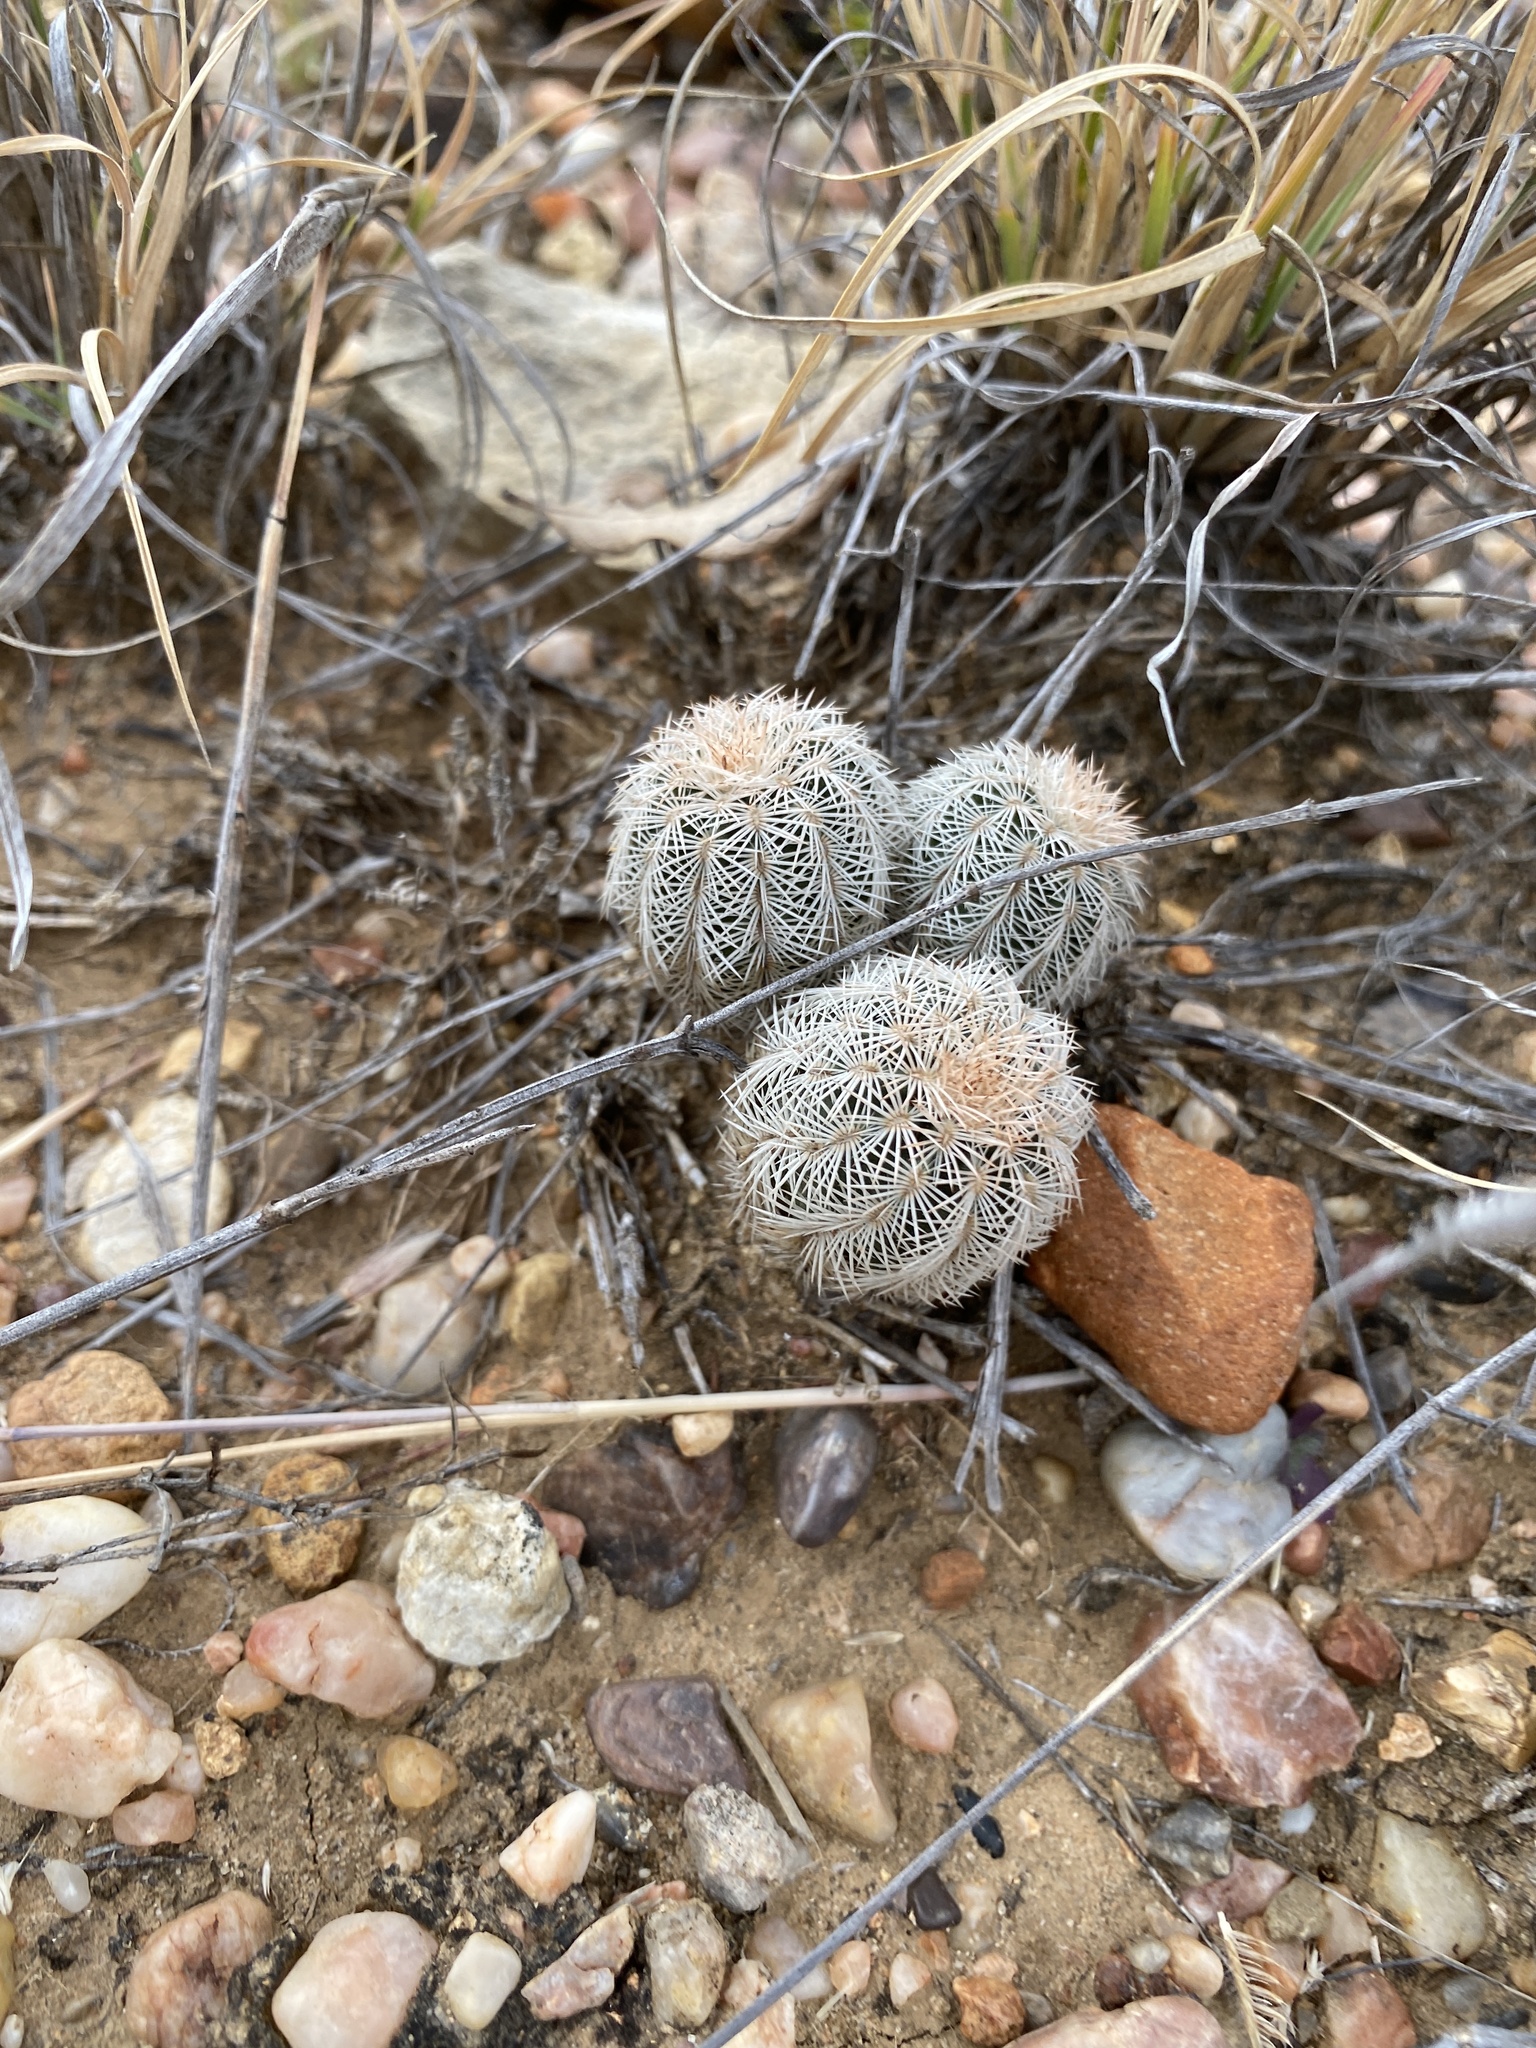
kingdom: Plantae
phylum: Tracheophyta
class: Magnoliopsida
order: Caryophyllales
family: Cactaceae
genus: Echinocereus
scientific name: Echinocereus reichenbachii
